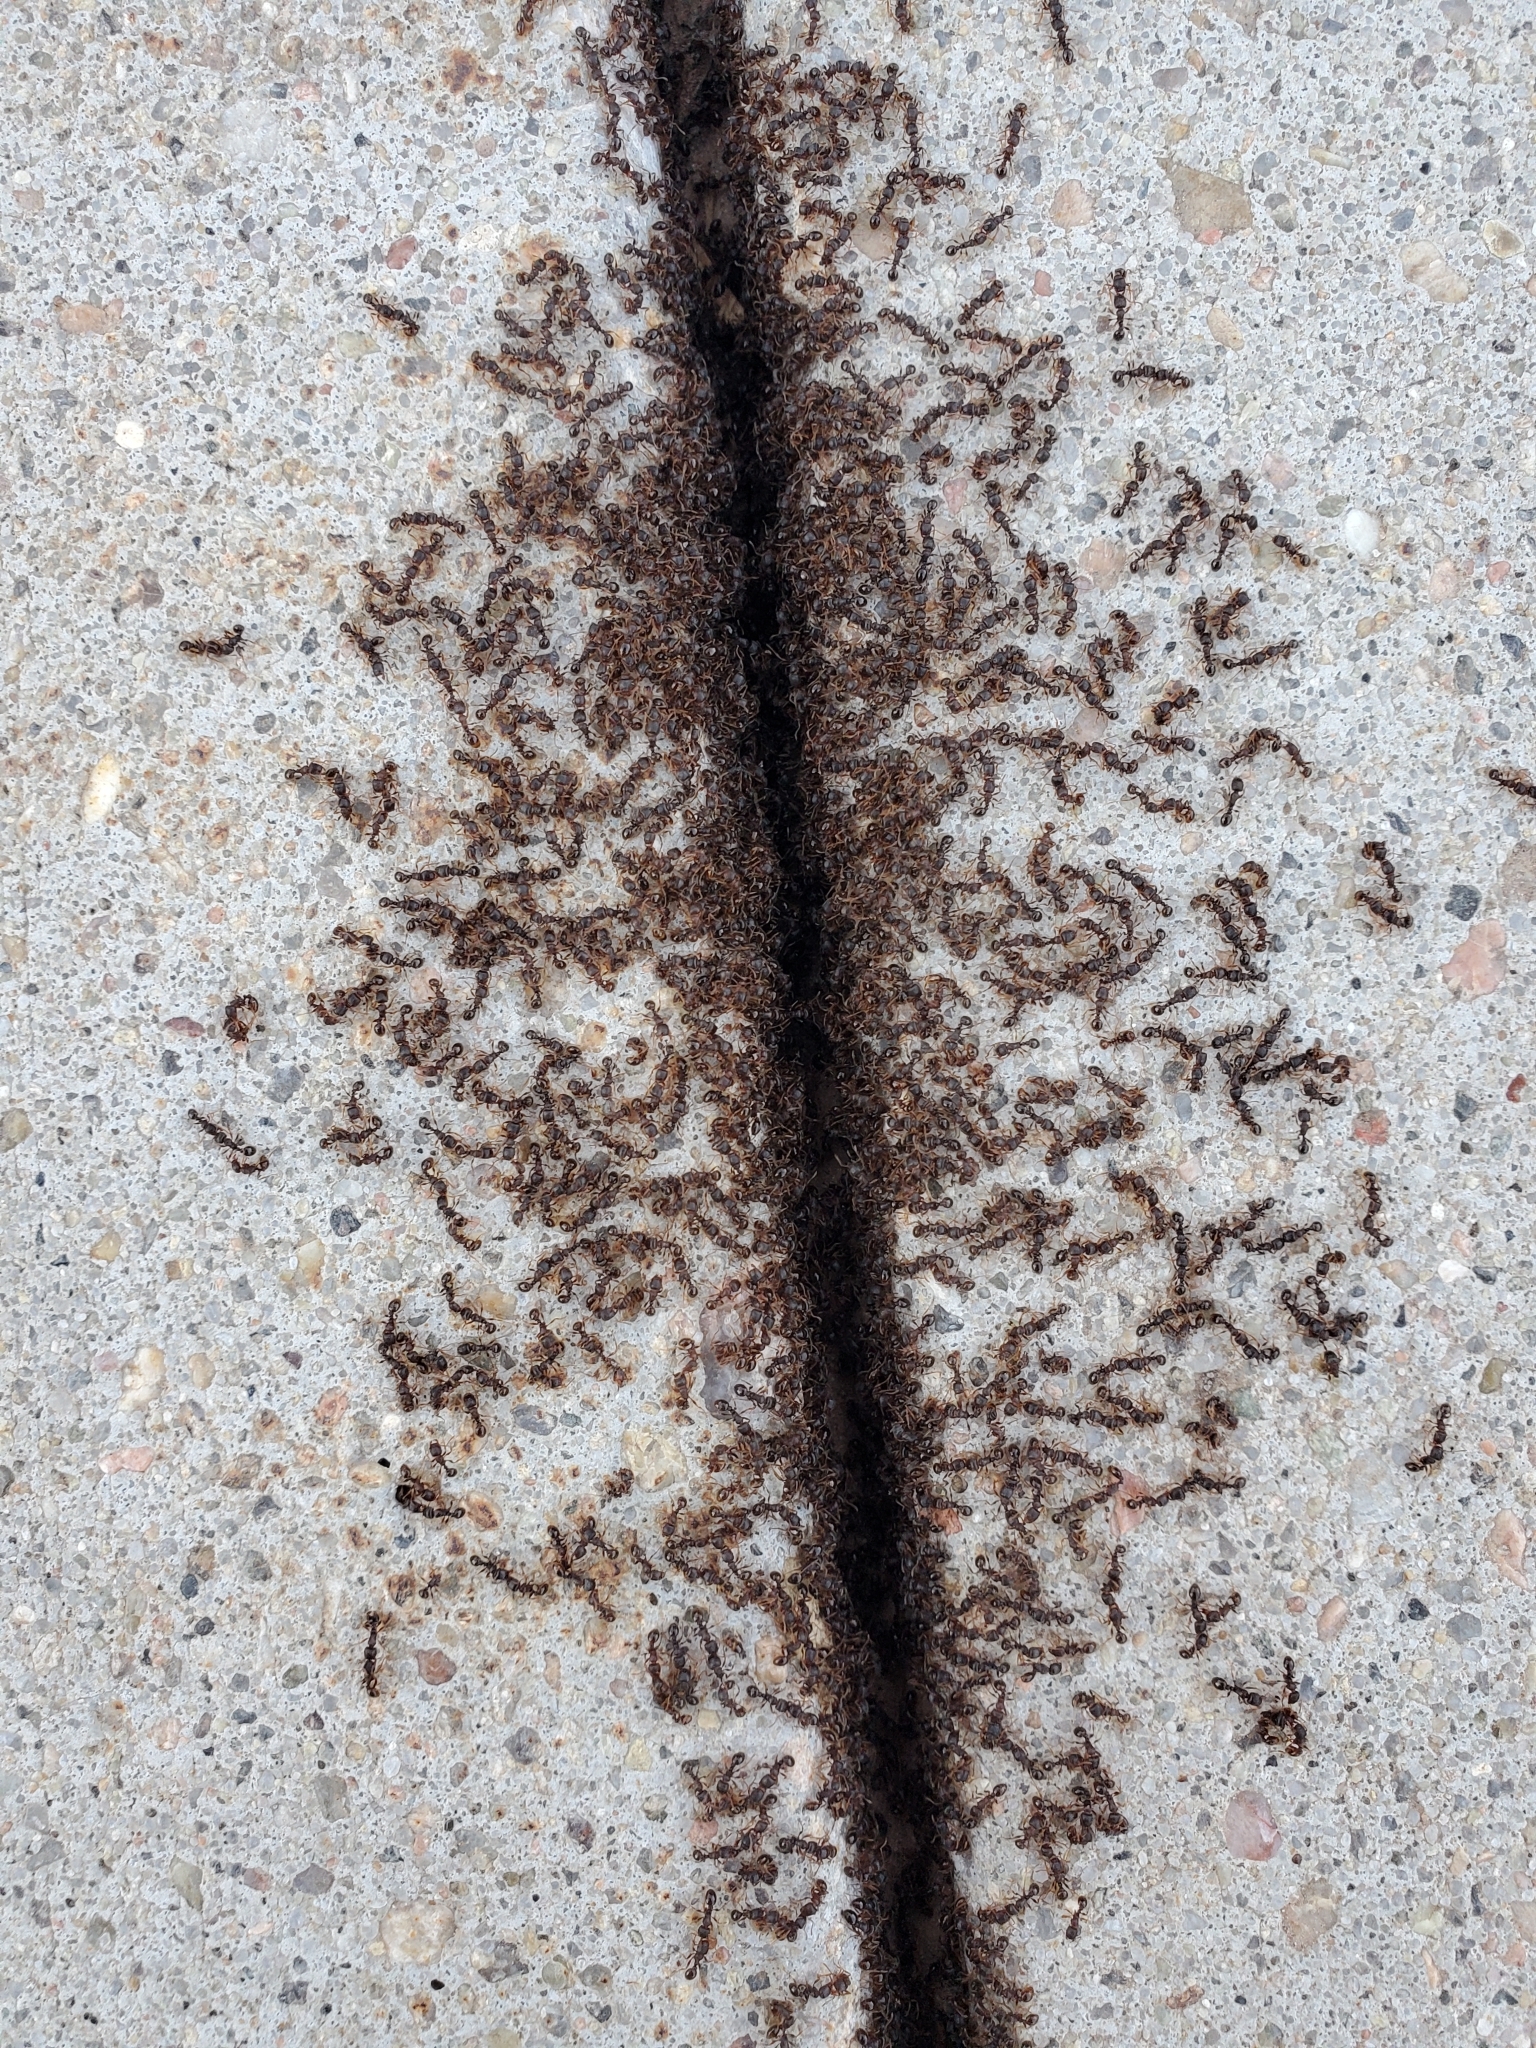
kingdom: Animalia
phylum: Arthropoda
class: Insecta
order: Hymenoptera
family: Formicidae
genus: Tetramorium
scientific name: Tetramorium immigrans
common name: Pavement ant
